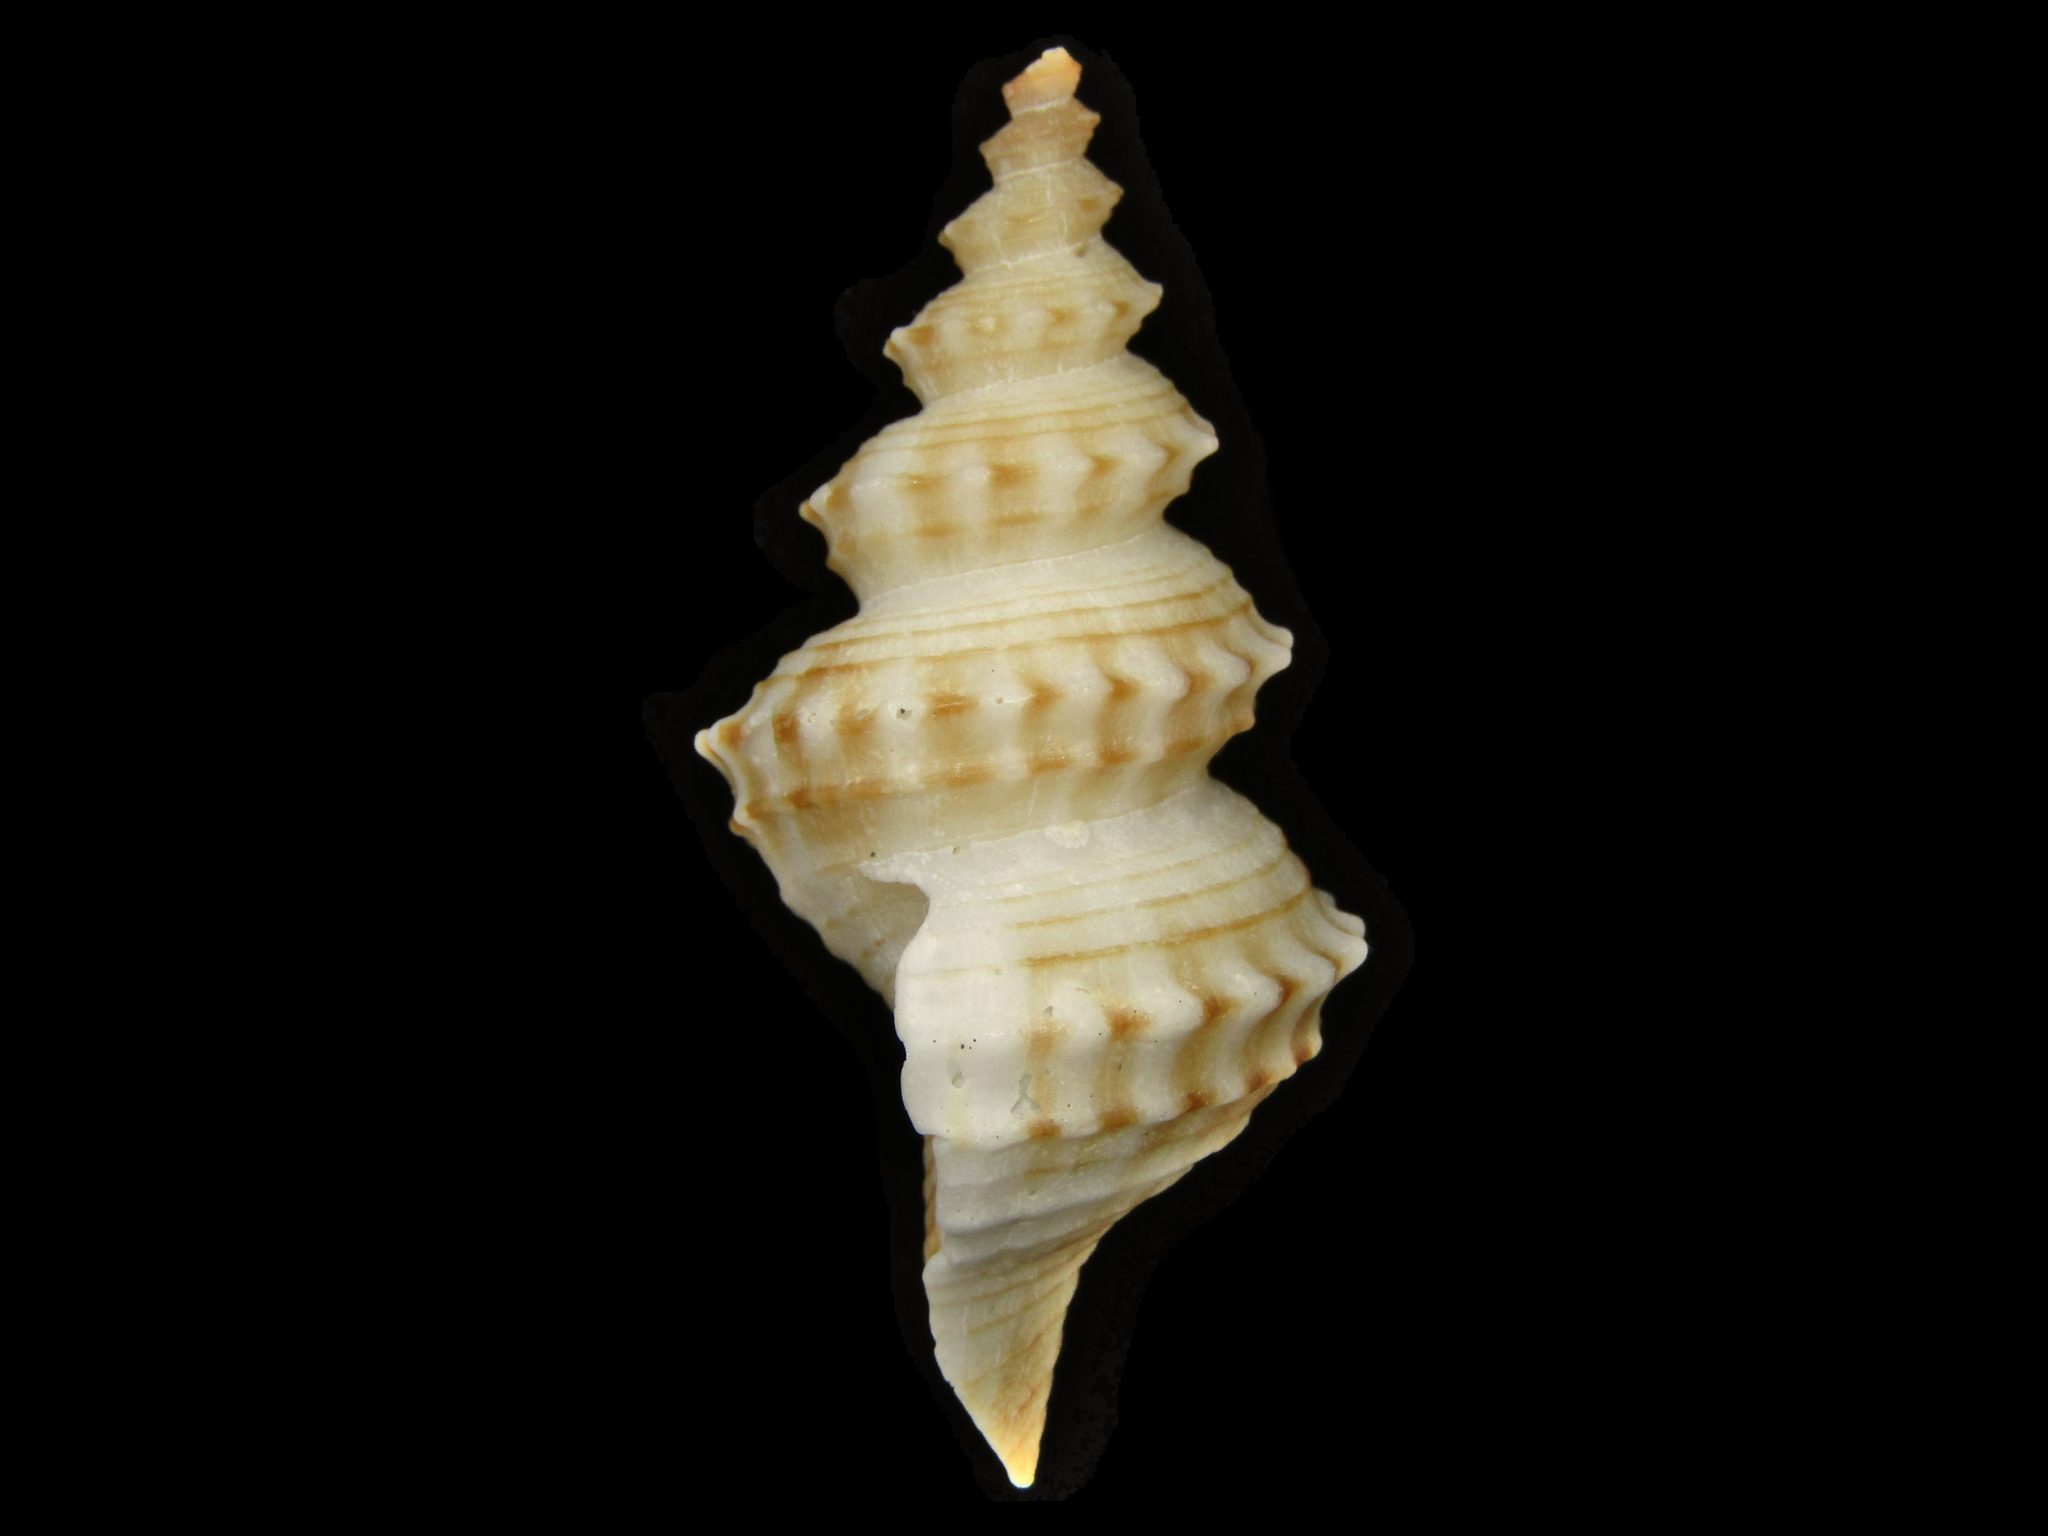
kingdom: Animalia
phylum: Mollusca
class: Gastropoda
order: Neogastropoda
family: Columbariidae
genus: Coluzea
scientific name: Coluzea spiralis
